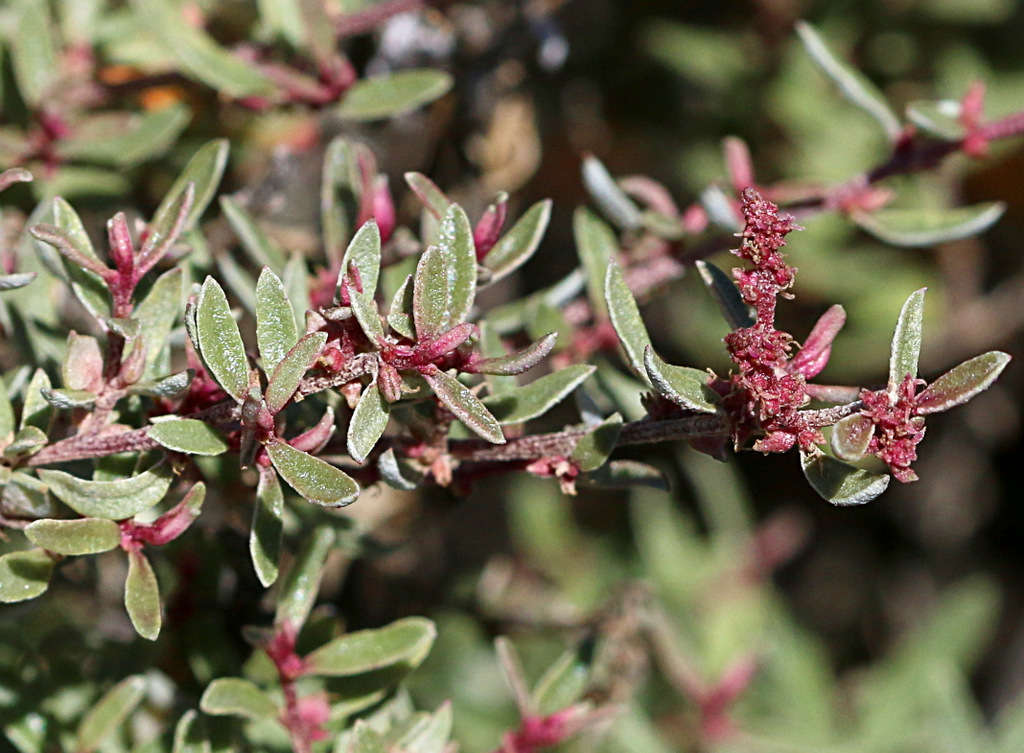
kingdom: Plantae
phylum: Tracheophyta
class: Magnoliopsida
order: Caryophyllales
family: Amaranthaceae
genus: Atriplex
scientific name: Atriplex paludosa
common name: Marsh saltbush
